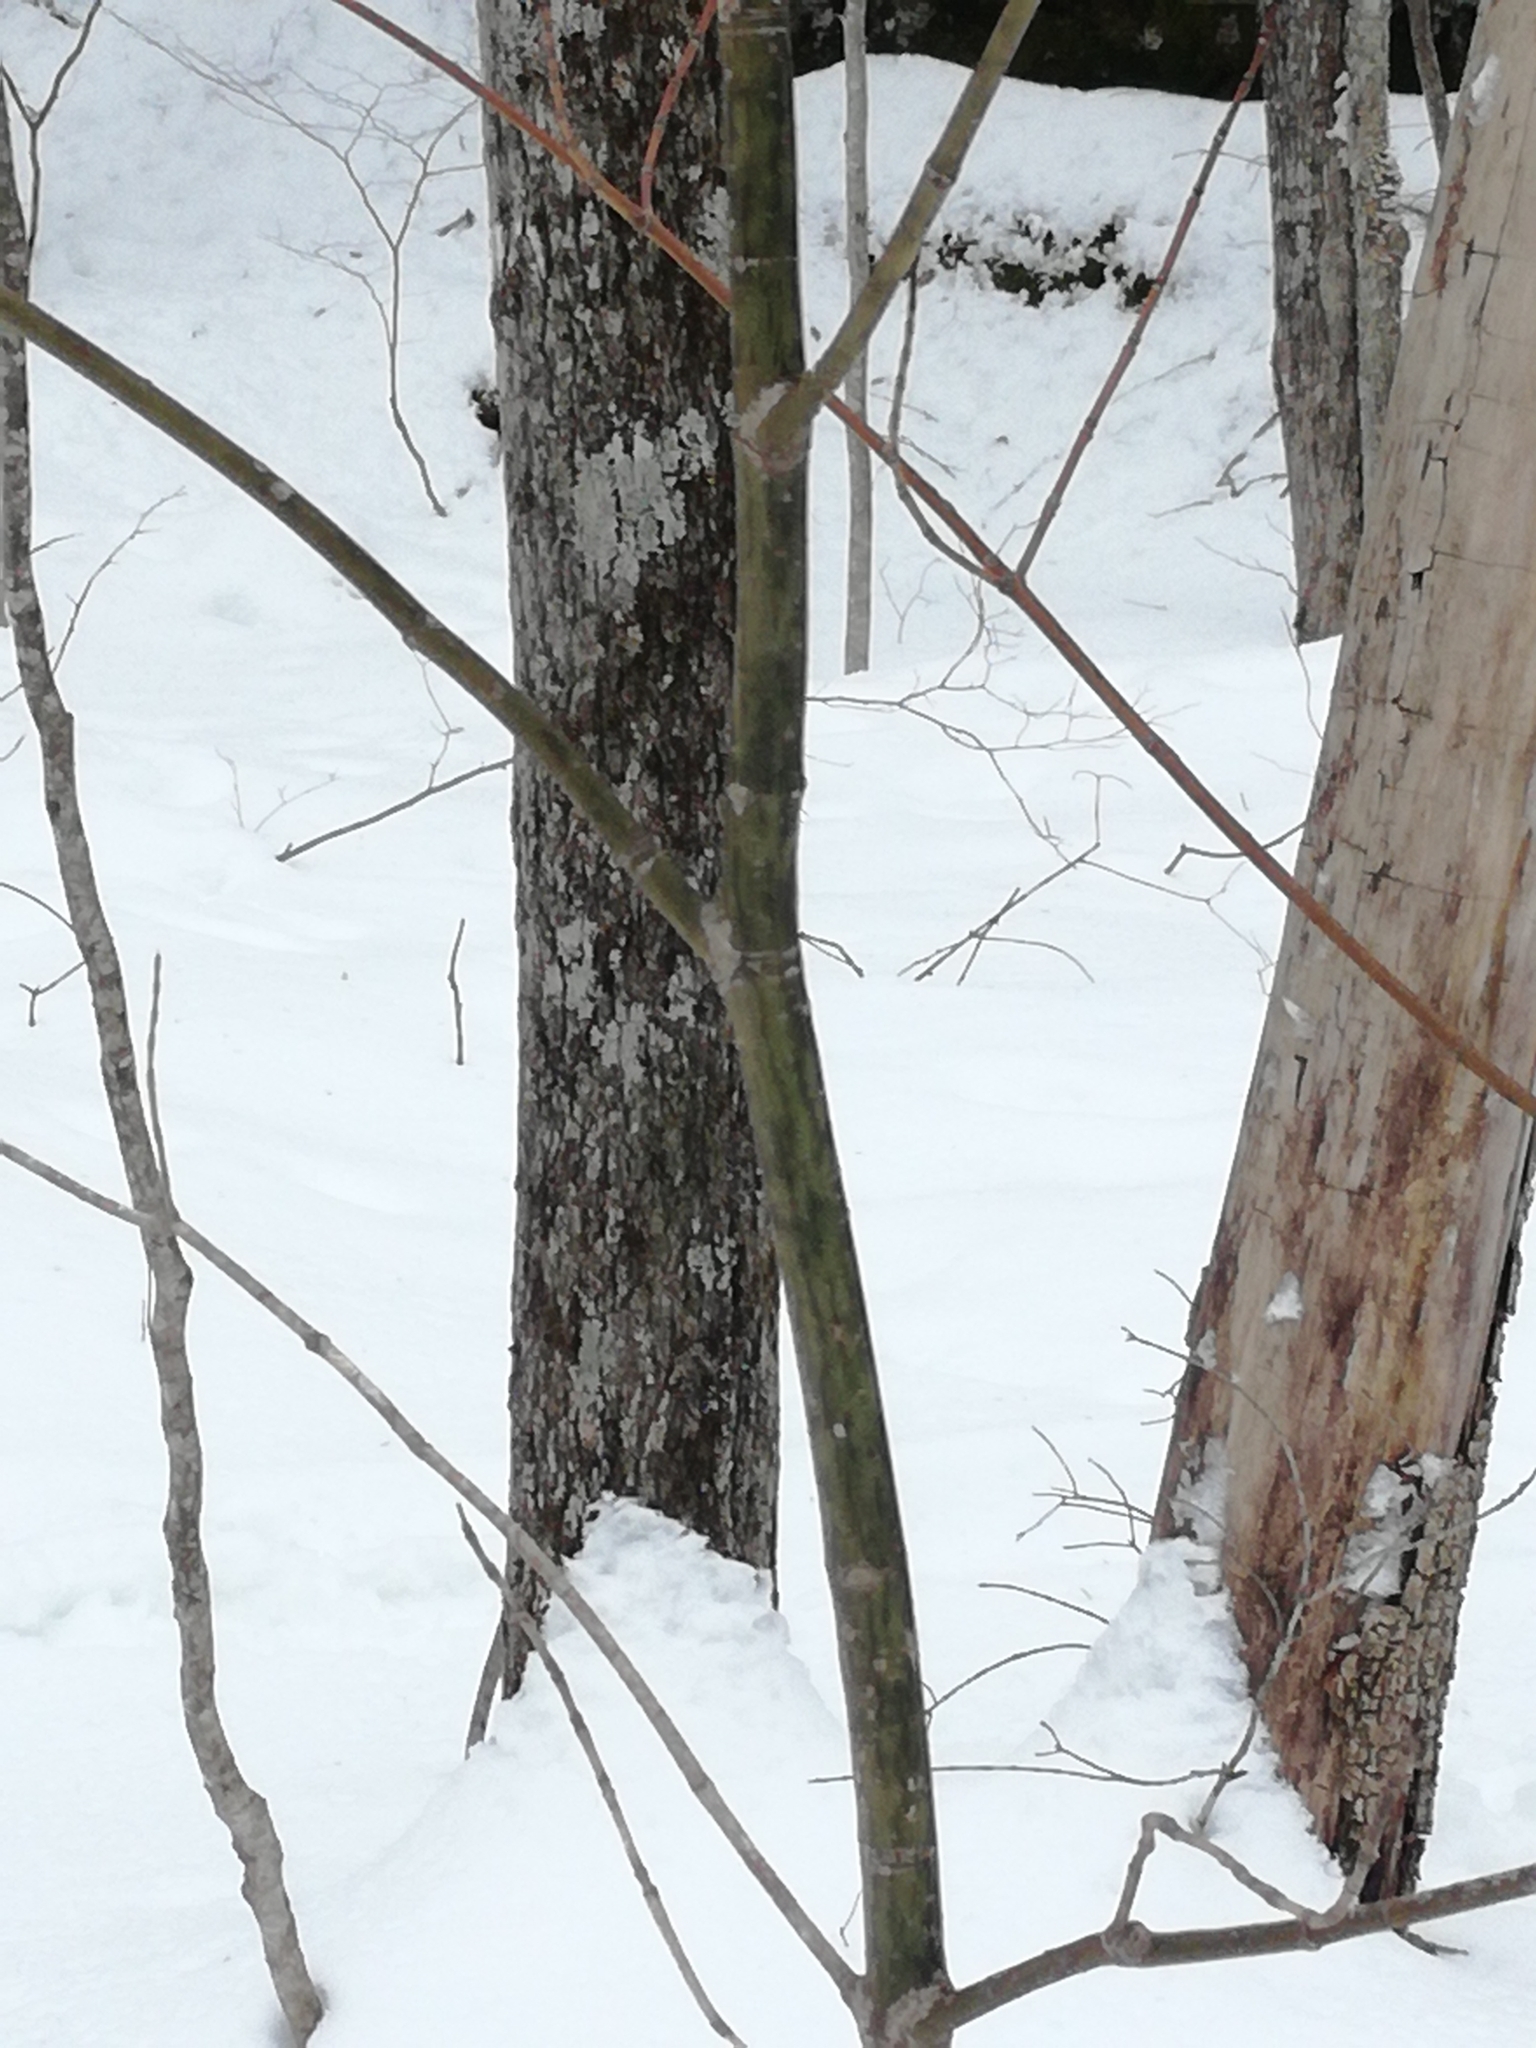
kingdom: Plantae
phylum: Tracheophyta
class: Magnoliopsida
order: Sapindales
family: Sapindaceae
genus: Acer
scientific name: Acer pensylvanicum
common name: Moosewood
